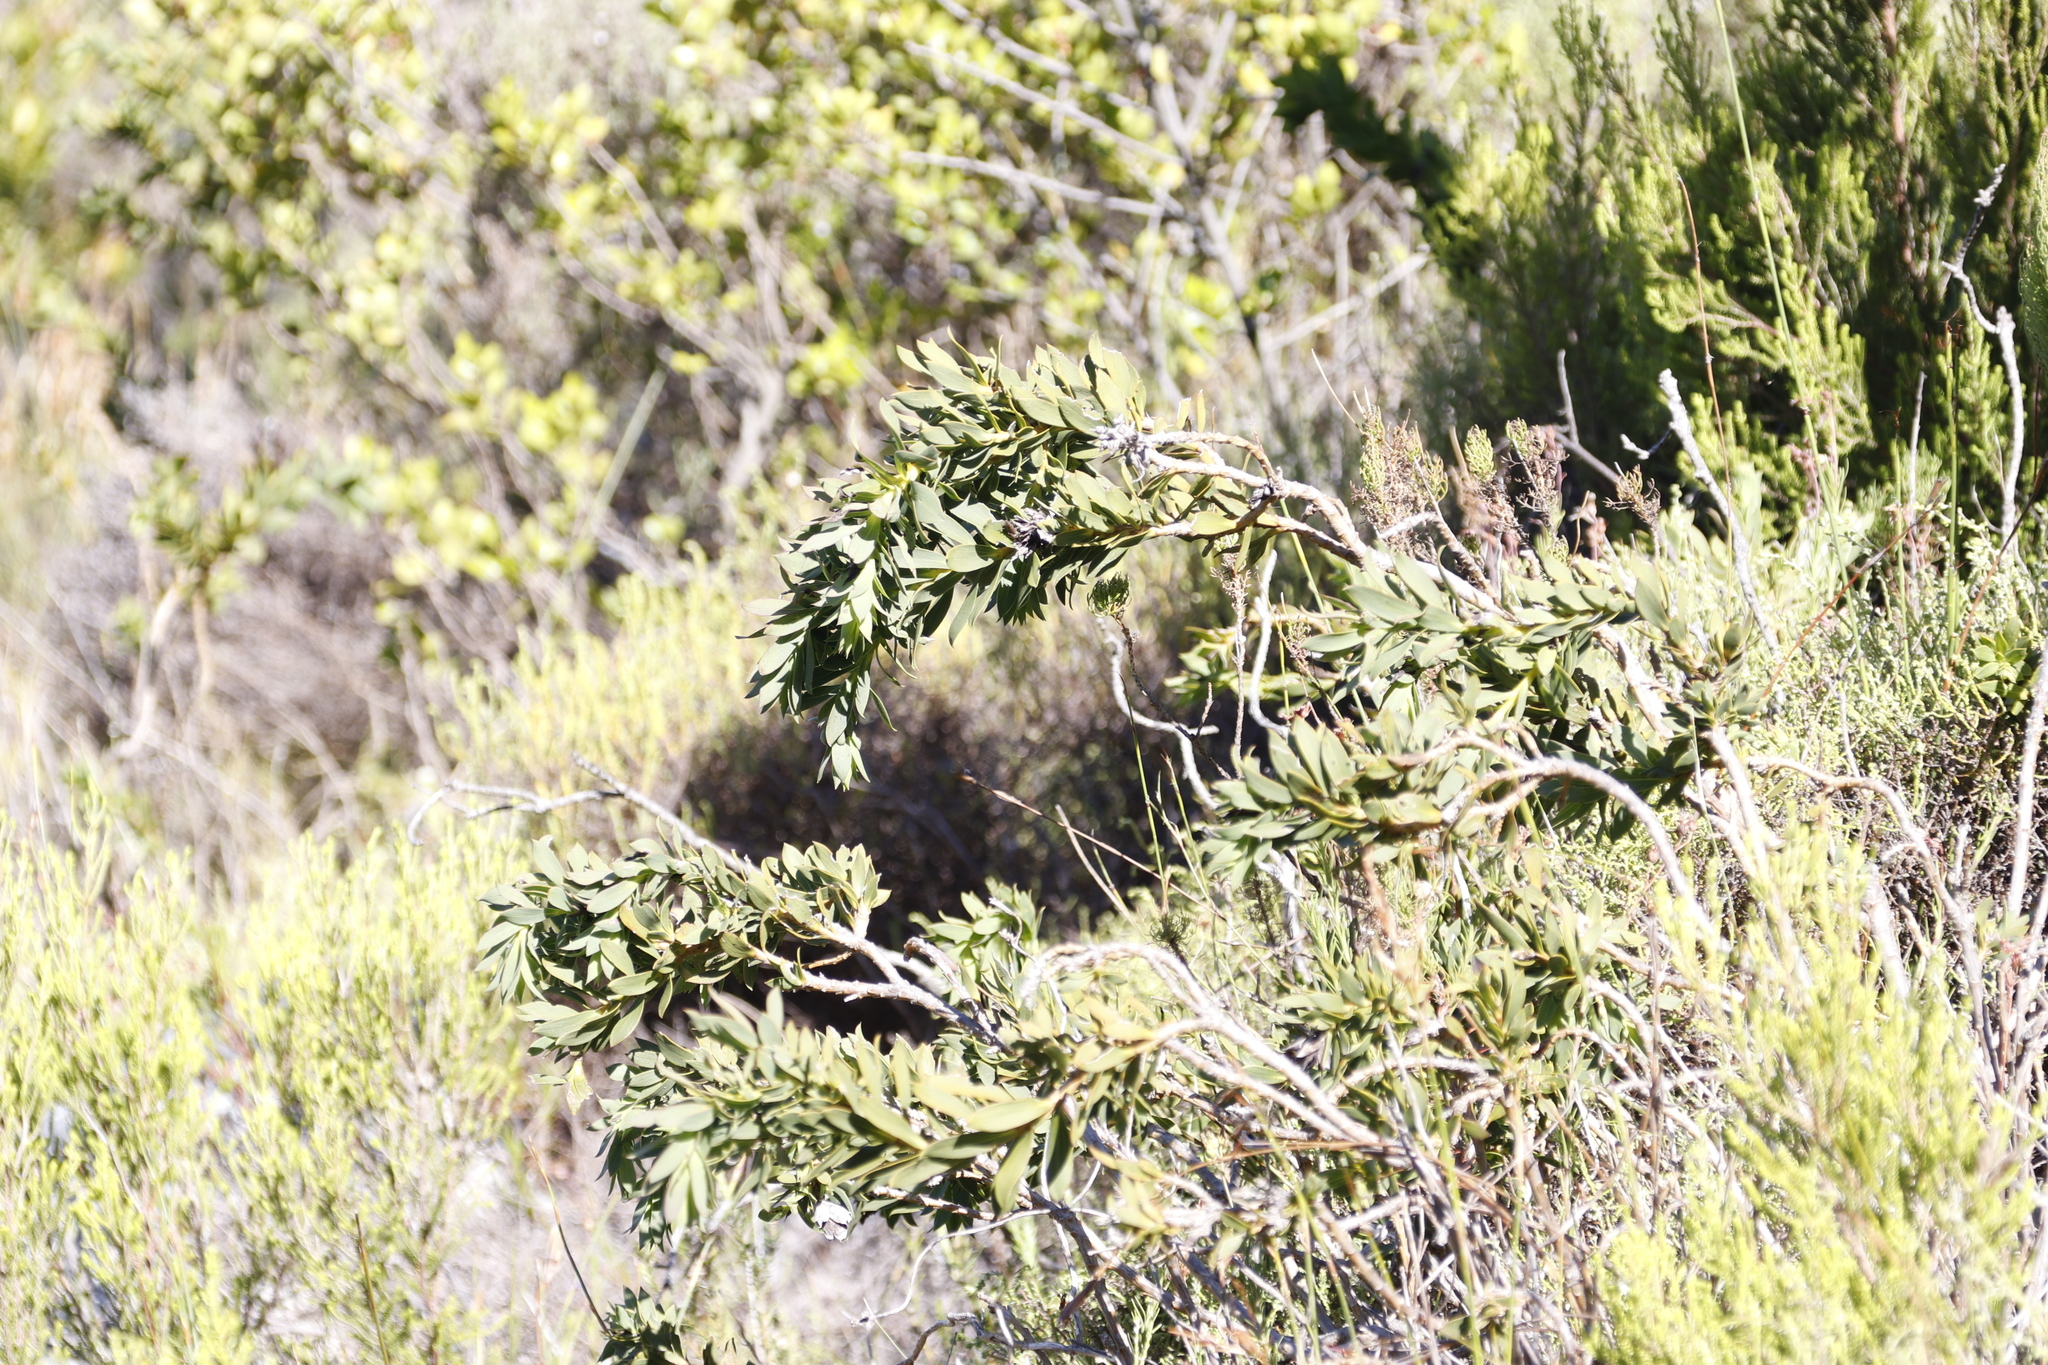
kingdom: Plantae
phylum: Tracheophyta
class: Magnoliopsida
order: Fabales
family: Fabaceae
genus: Liparia
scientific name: Liparia splendens
